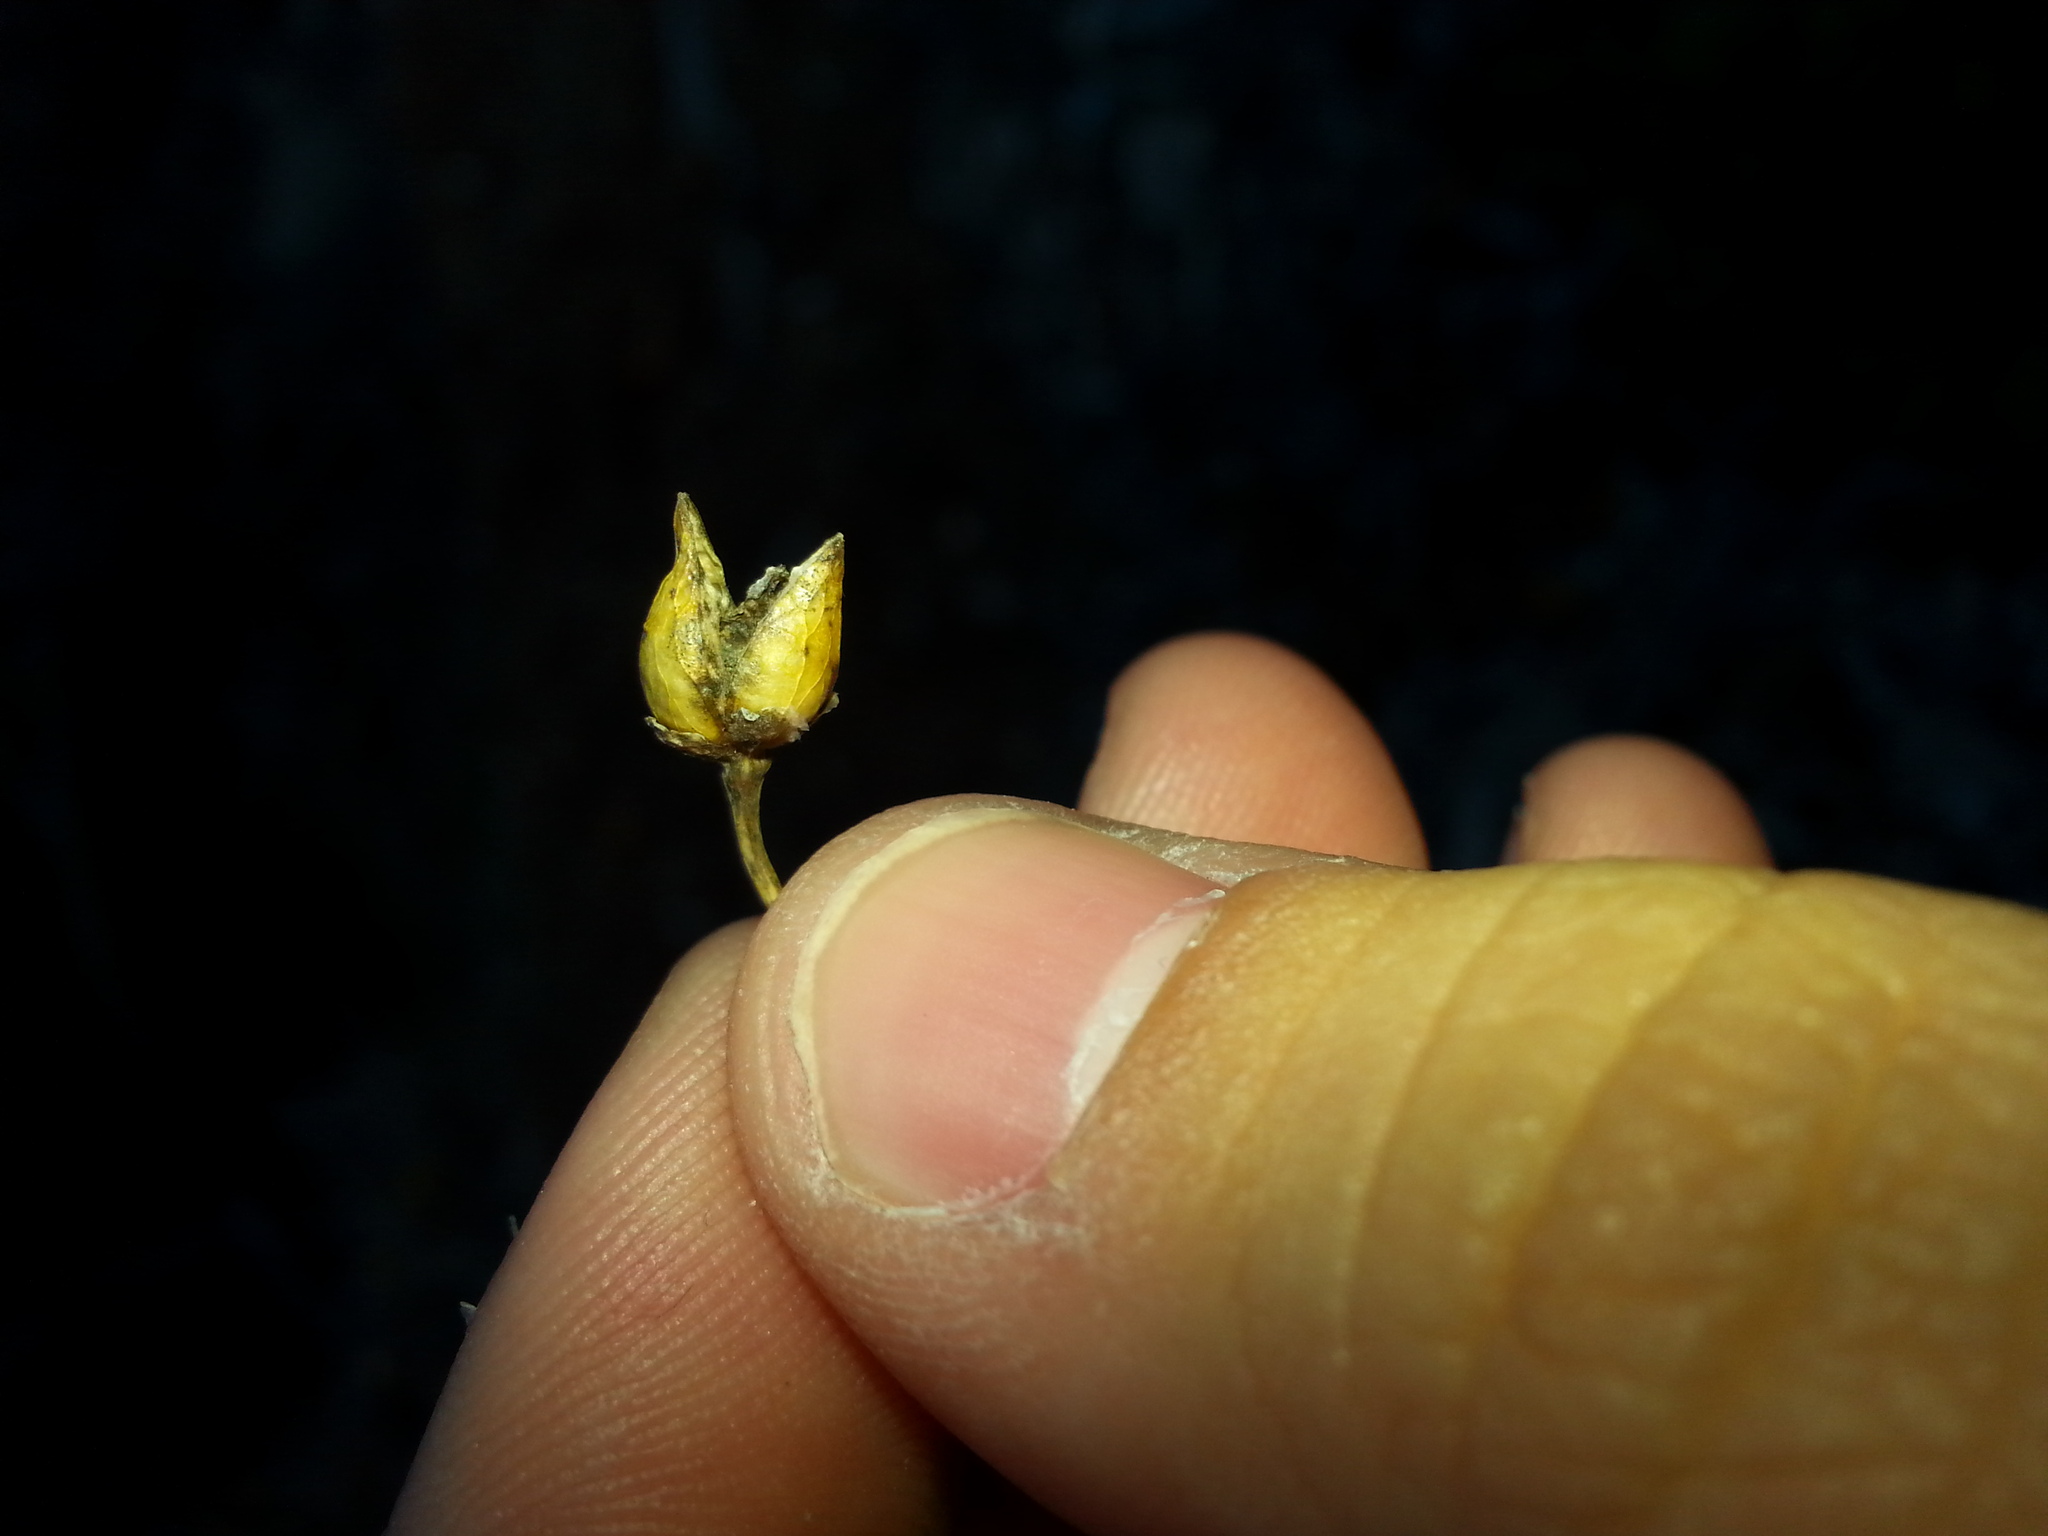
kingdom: Plantae
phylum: Tracheophyta
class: Magnoliopsida
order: Lamiales
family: Scrophulariaceae
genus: Scrophularia
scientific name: Scrophularia californica
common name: California figwort
